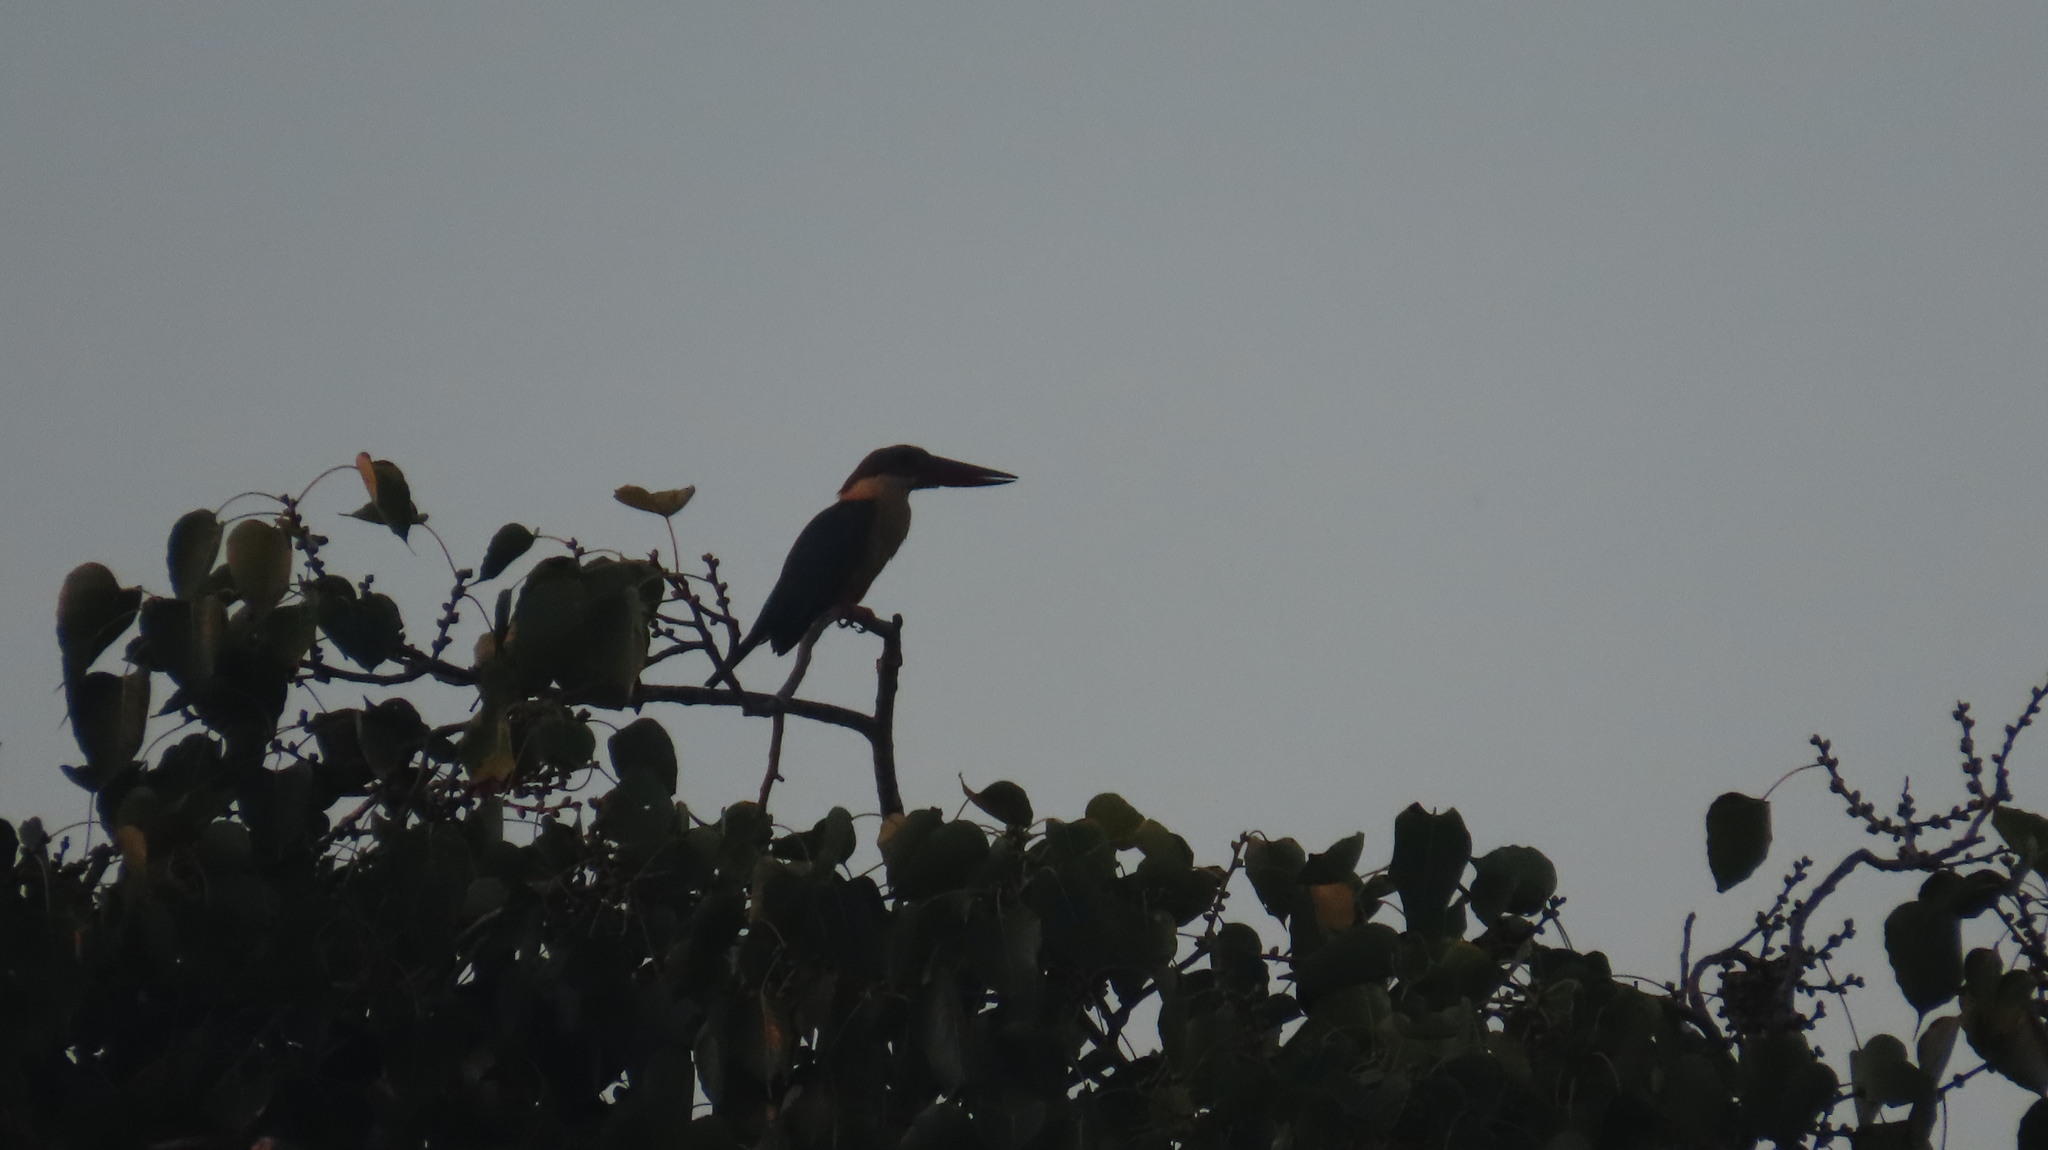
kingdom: Animalia
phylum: Chordata
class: Aves
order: Coraciiformes
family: Alcedinidae
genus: Pelargopsis
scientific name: Pelargopsis capensis
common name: Stork-billed kingfisher
